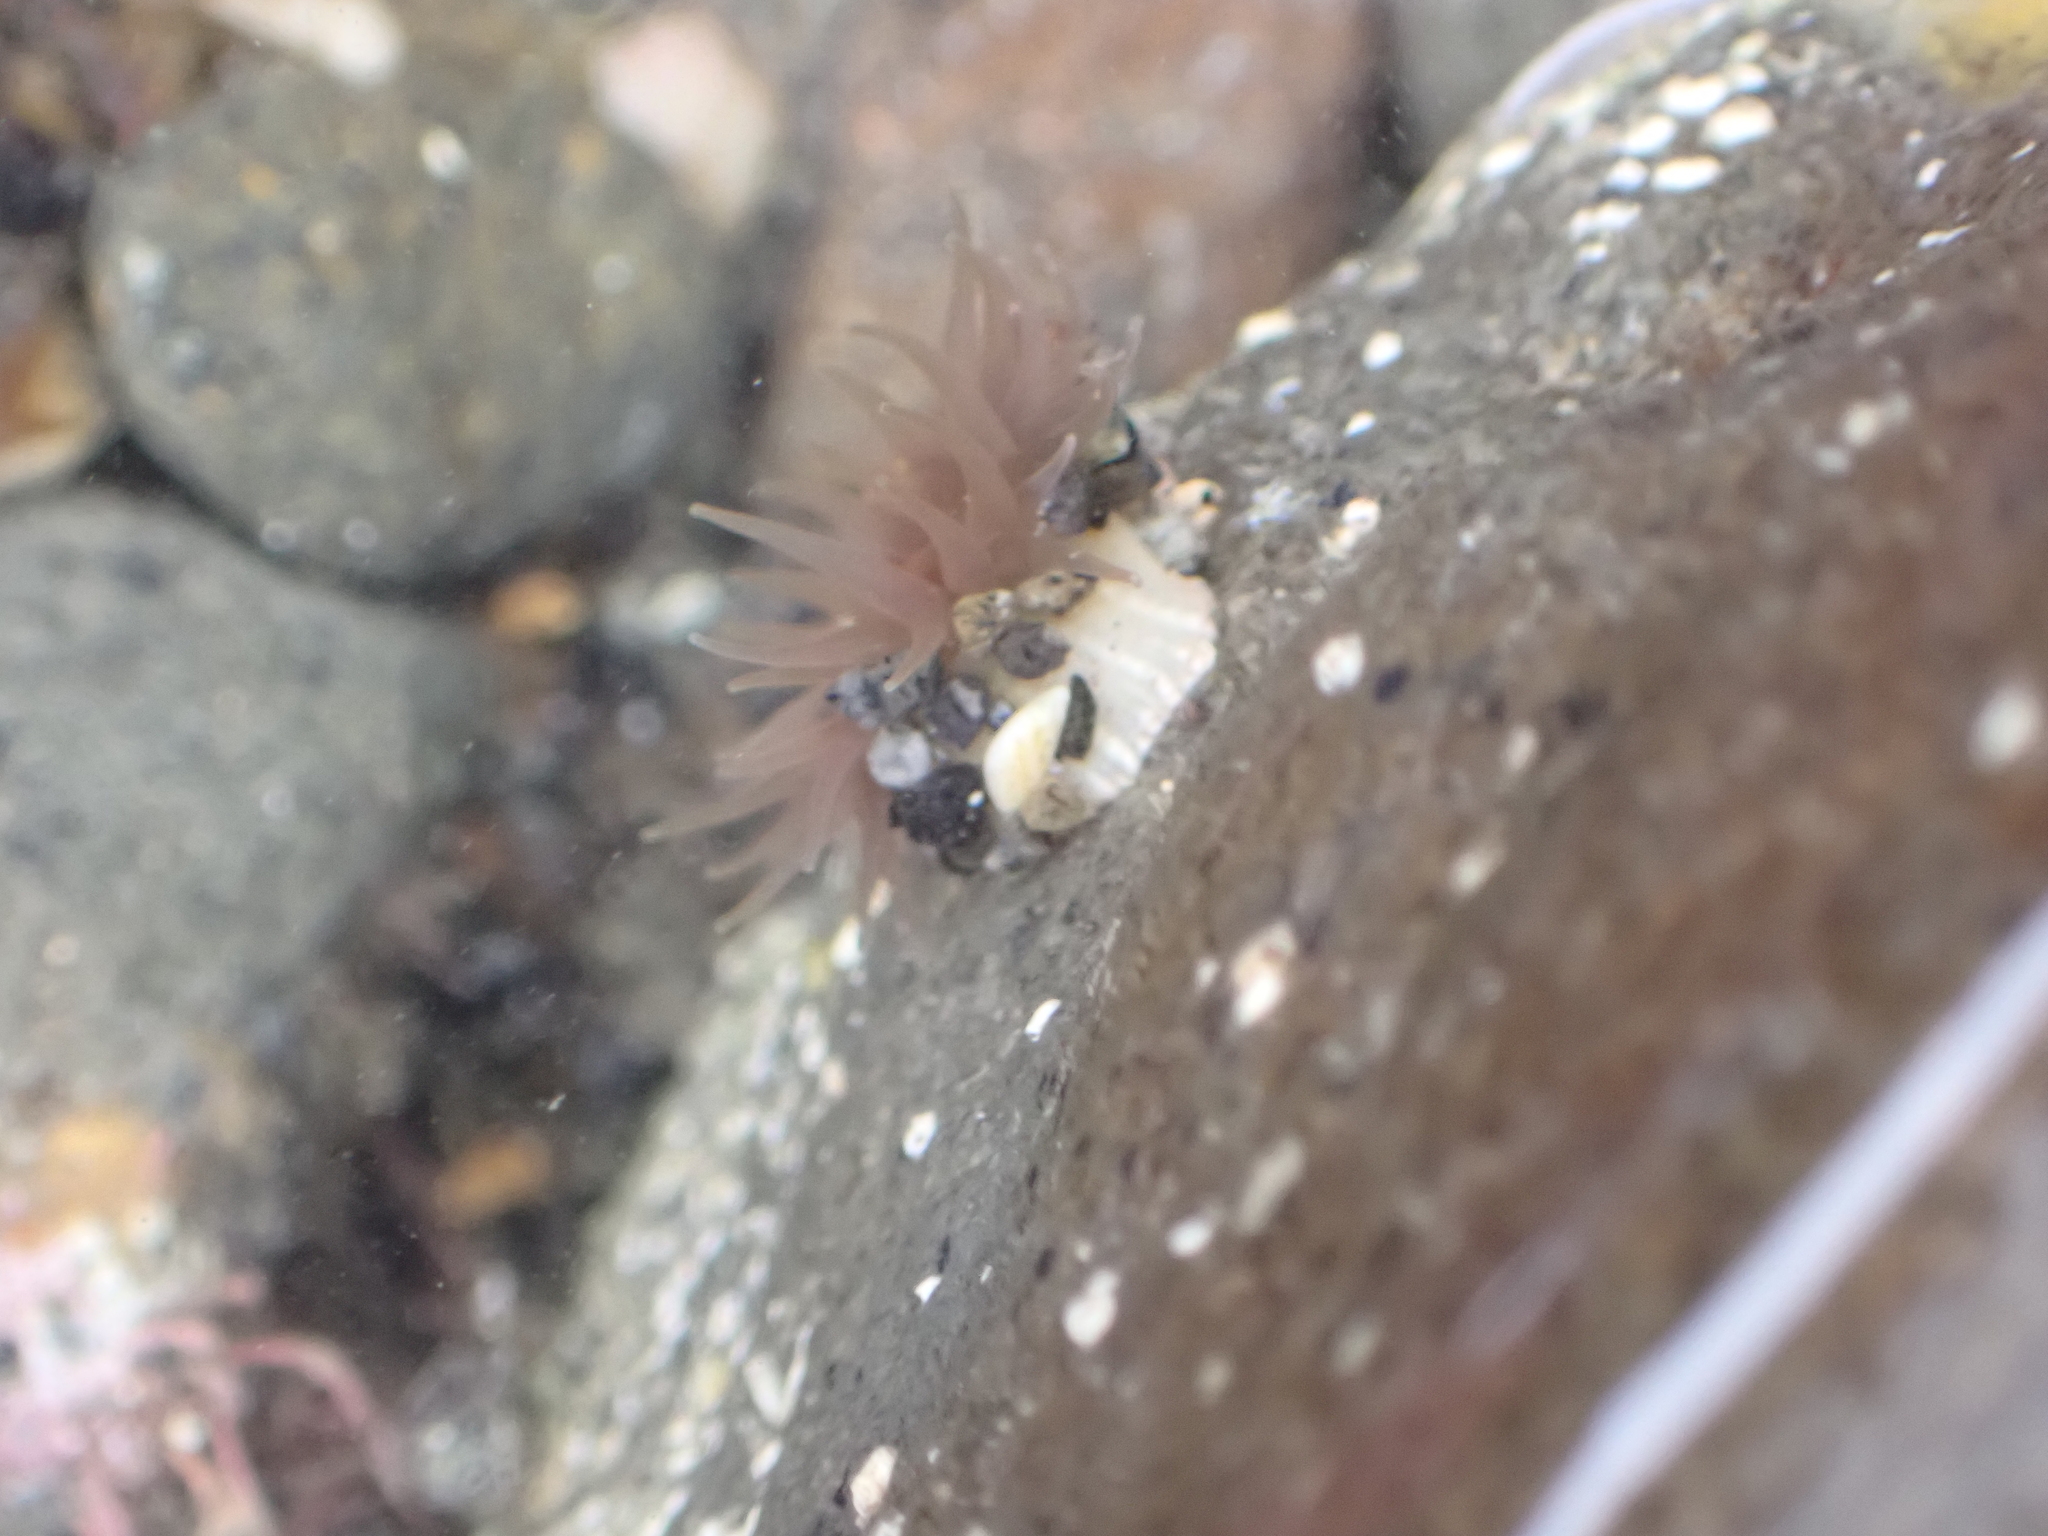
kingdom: Animalia
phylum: Cnidaria
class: Anthozoa
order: Actiniaria
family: Actiniidae
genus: Isactinia
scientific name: Isactinia olivacea
